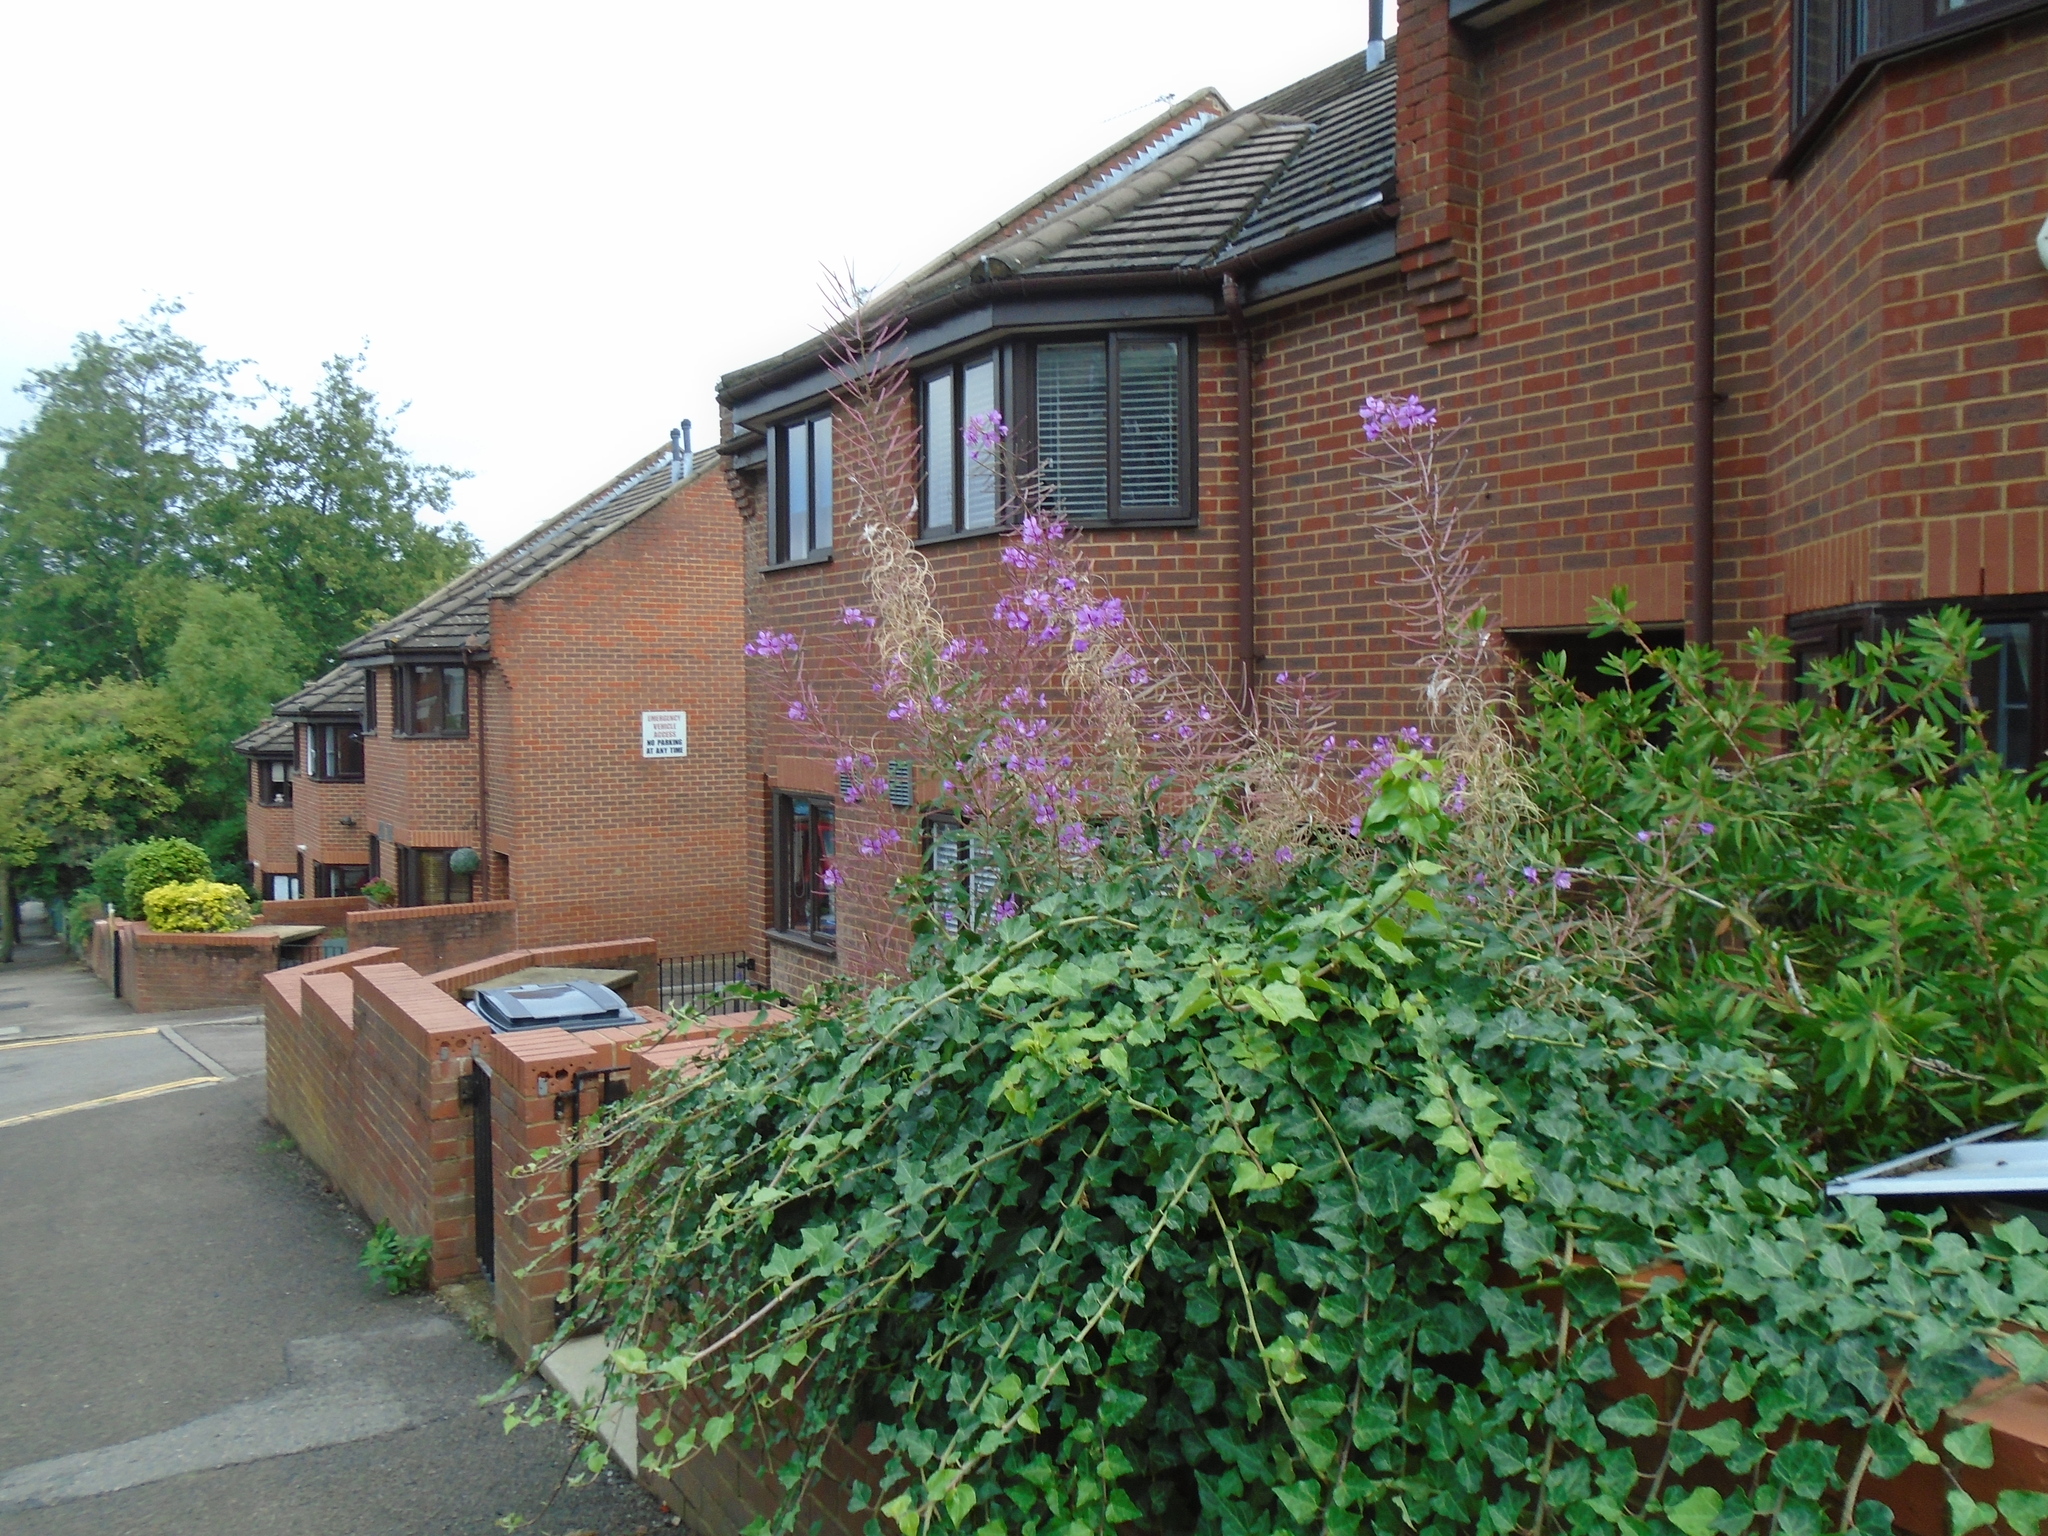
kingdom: Plantae
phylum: Tracheophyta
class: Magnoliopsida
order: Myrtales
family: Onagraceae
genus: Chamaenerion
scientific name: Chamaenerion angustifolium
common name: Fireweed
